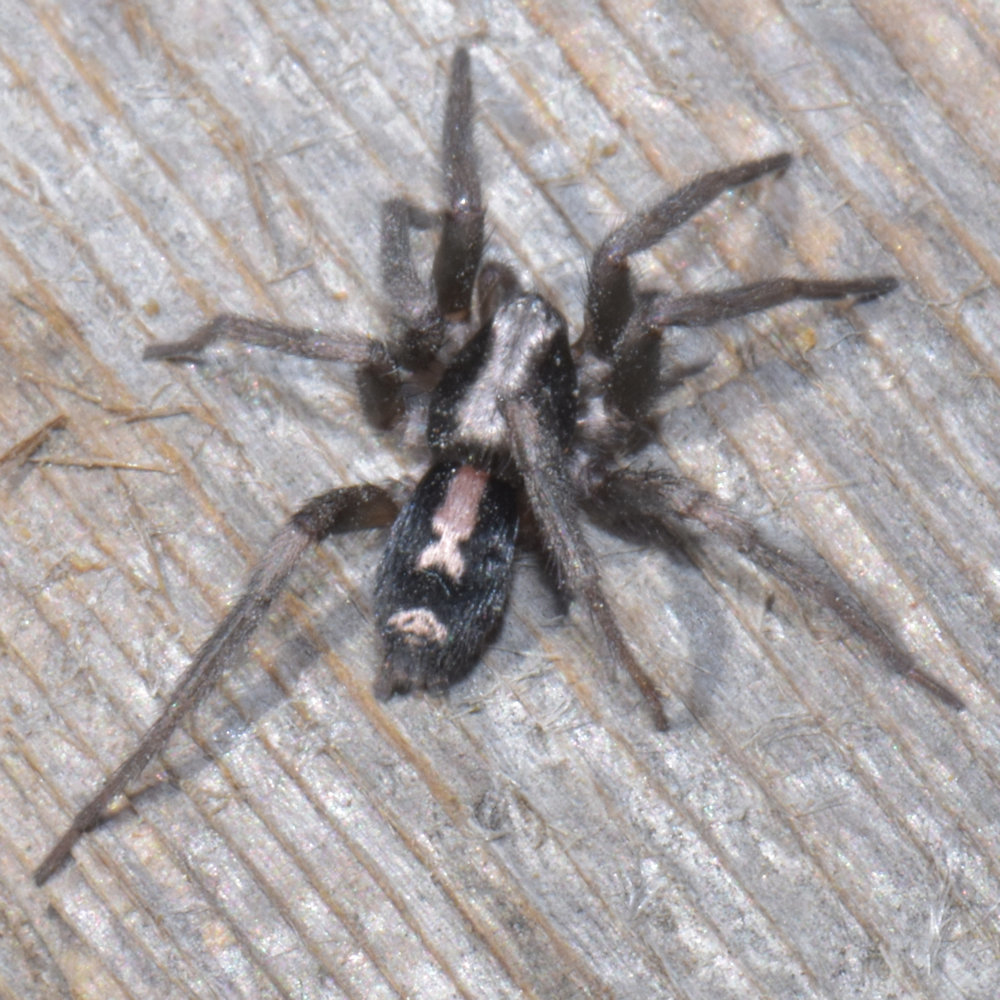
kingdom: Animalia
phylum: Arthropoda
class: Arachnida
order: Araneae
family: Gnaphosidae
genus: Herpyllus
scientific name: Herpyllus ecclesiasticus
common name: Eastern parson spider
